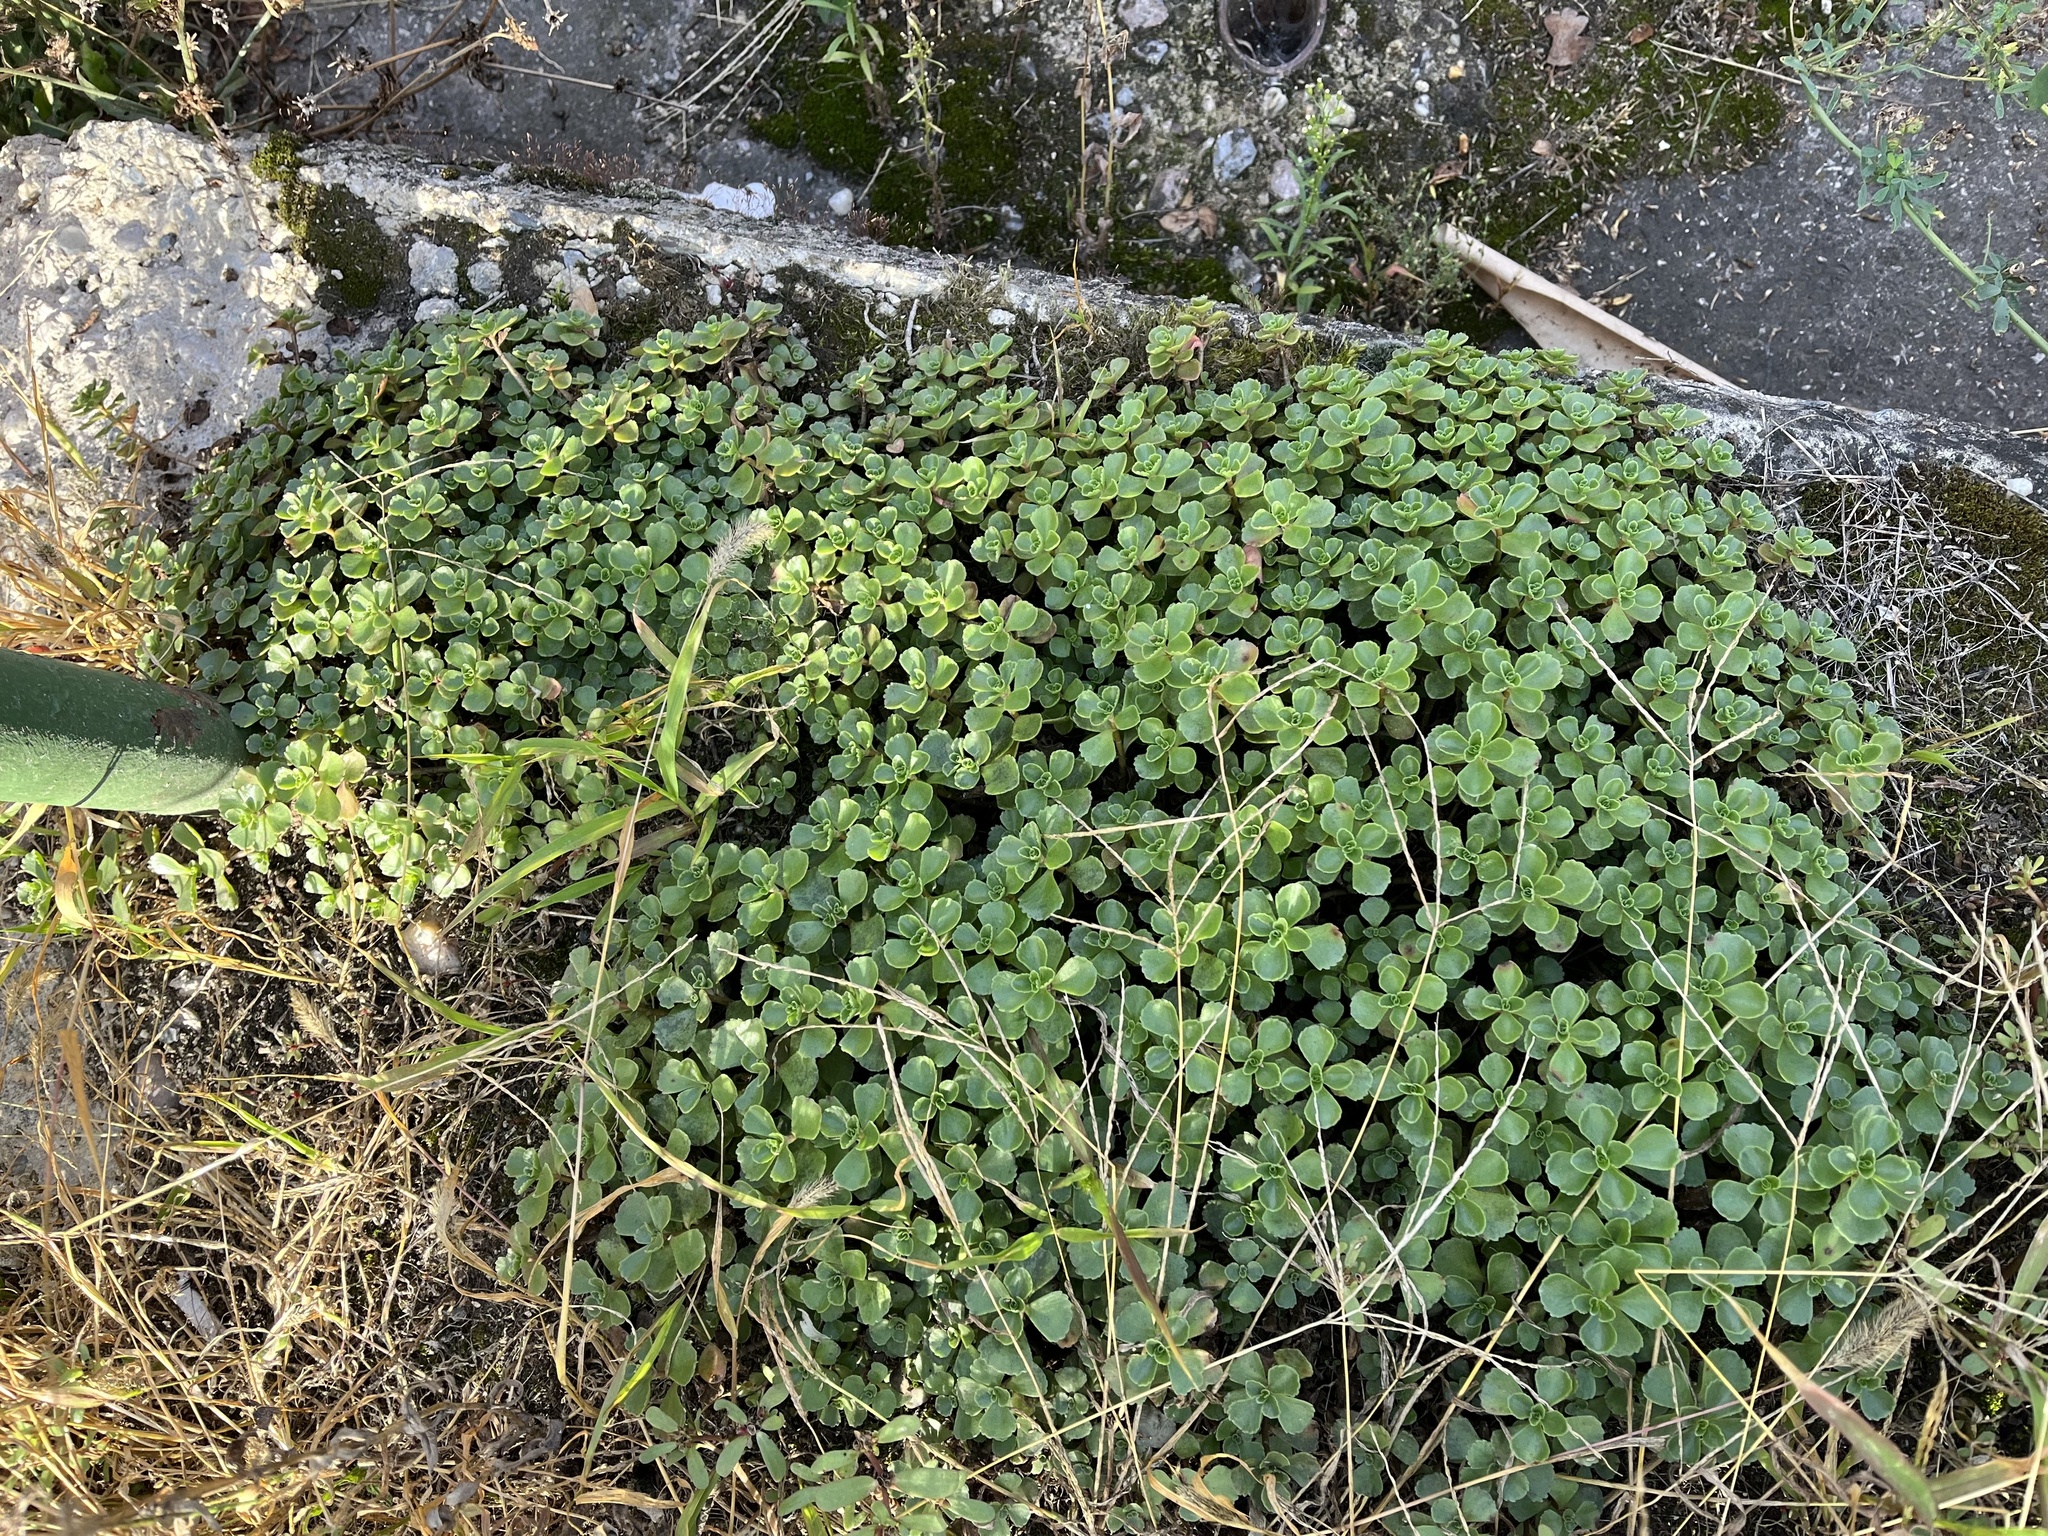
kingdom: Plantae
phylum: Tracheophyta
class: Magnoliopsida
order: Saxifragales
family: Crassulaceae
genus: Phedimus
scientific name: Phedimus spurius
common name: Caucasian stonecrop
